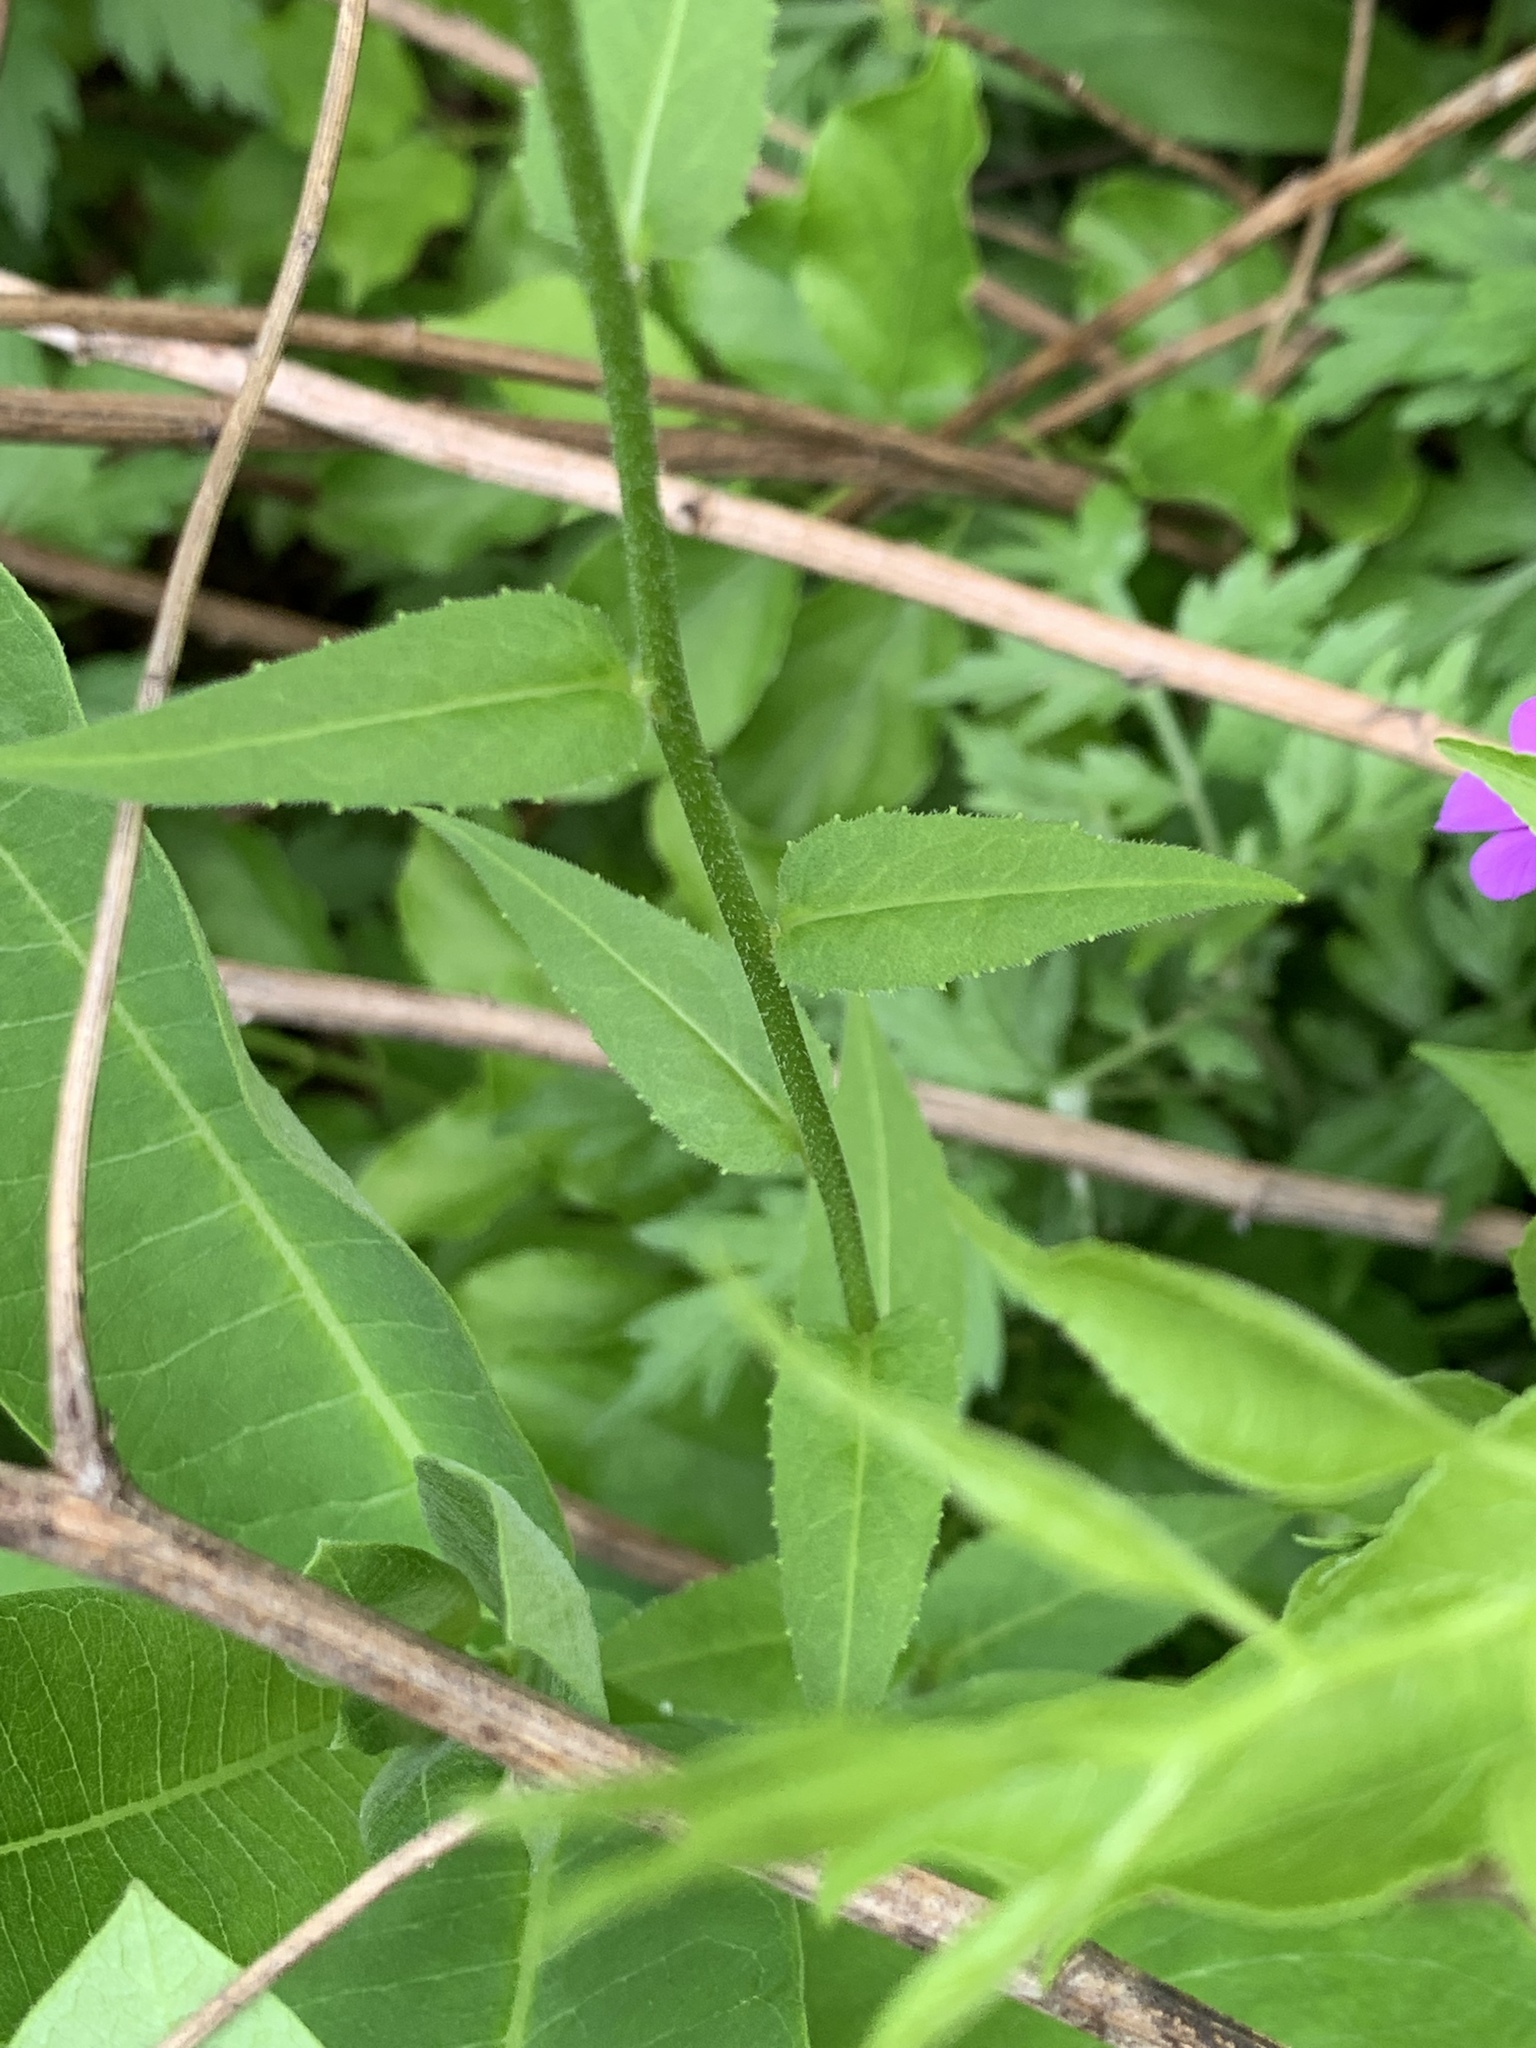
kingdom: Plantae
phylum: Tracheophyta
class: Magnoliopsida
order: Brassicales
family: Brassicaceae
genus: Hesperis
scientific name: Hesperis matronalis
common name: Dame's-violet
